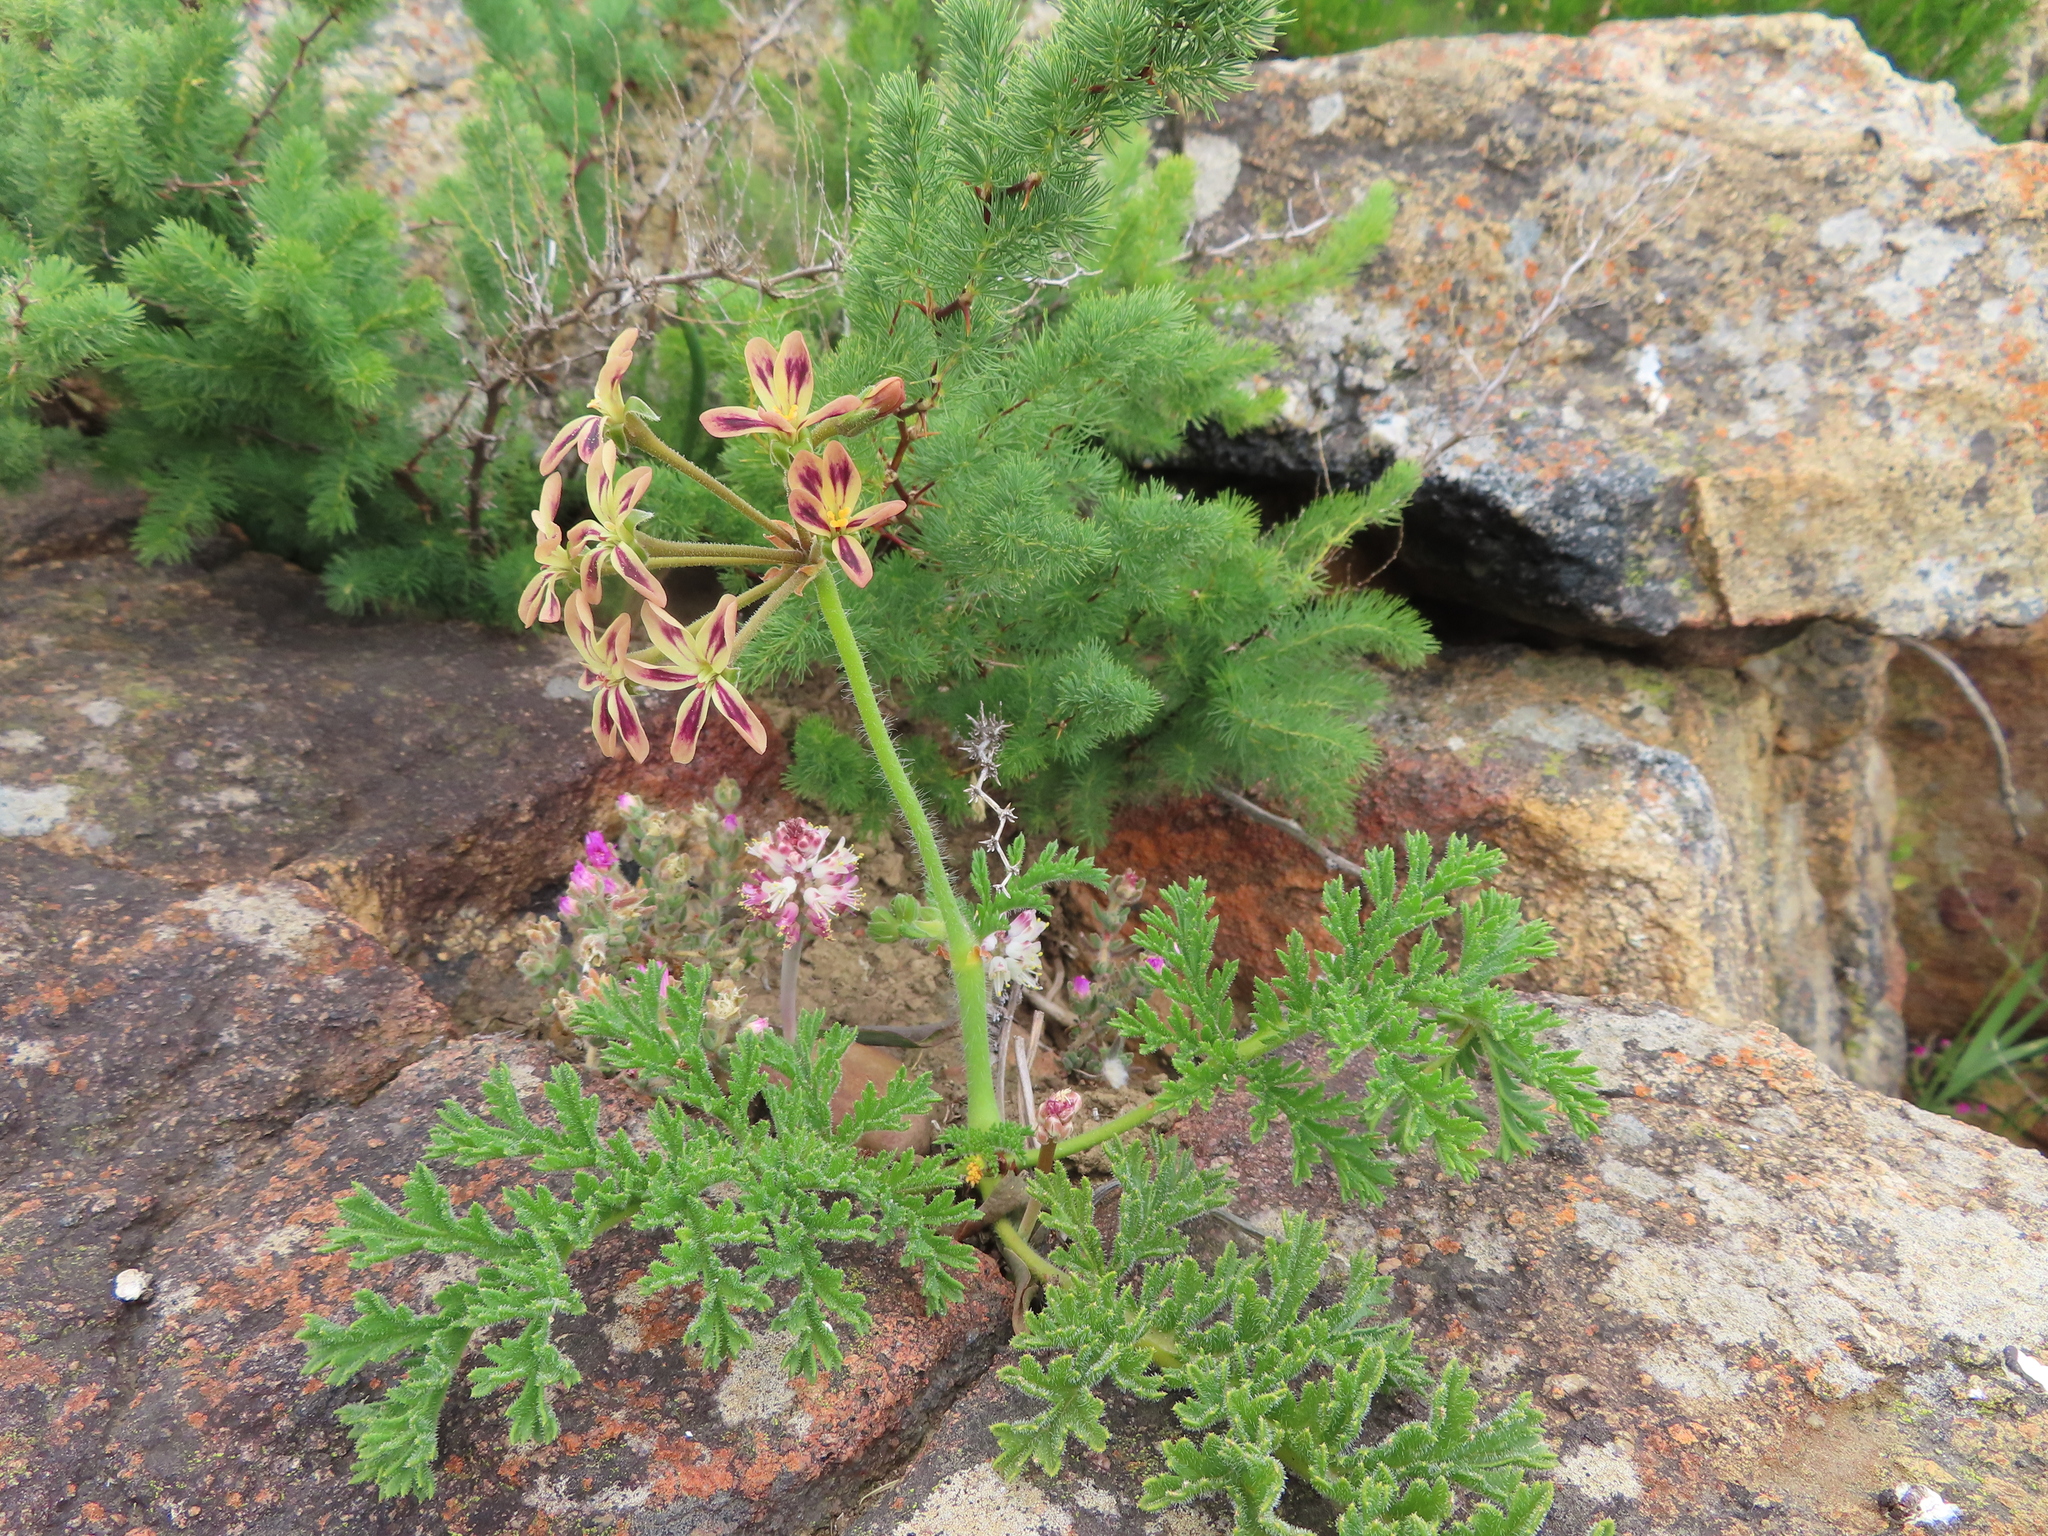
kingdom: Plantae
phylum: Tracheophyta
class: Magnoliopsida
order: Geraniales
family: Geraniaceae
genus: Pelargonium
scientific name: Pelargonium triste
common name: Night-scent pelargonium
